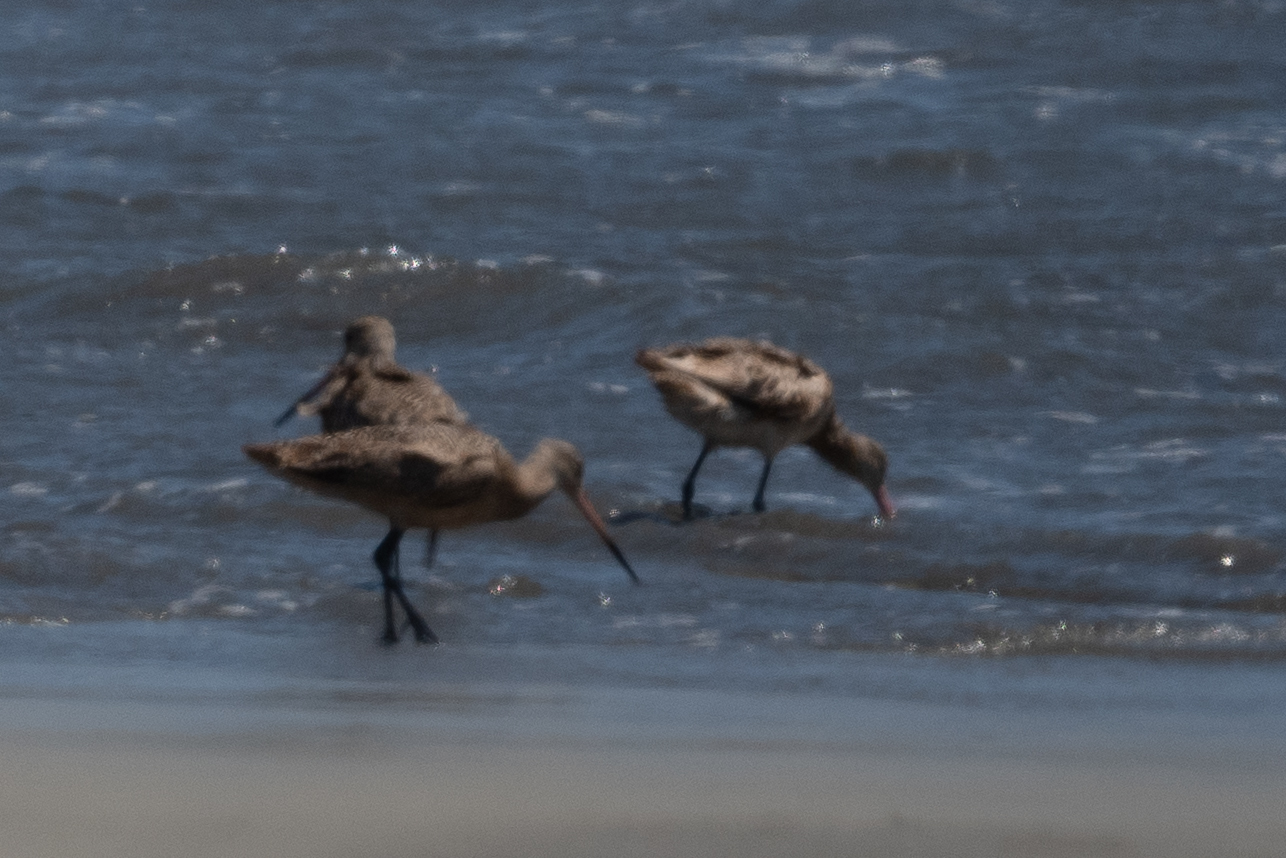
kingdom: Animalia
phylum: Chordata
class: Aves
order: Charadriiformes
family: Scolopacidae
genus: Limosa
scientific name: Limosa fedoa
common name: Marbled godwit
